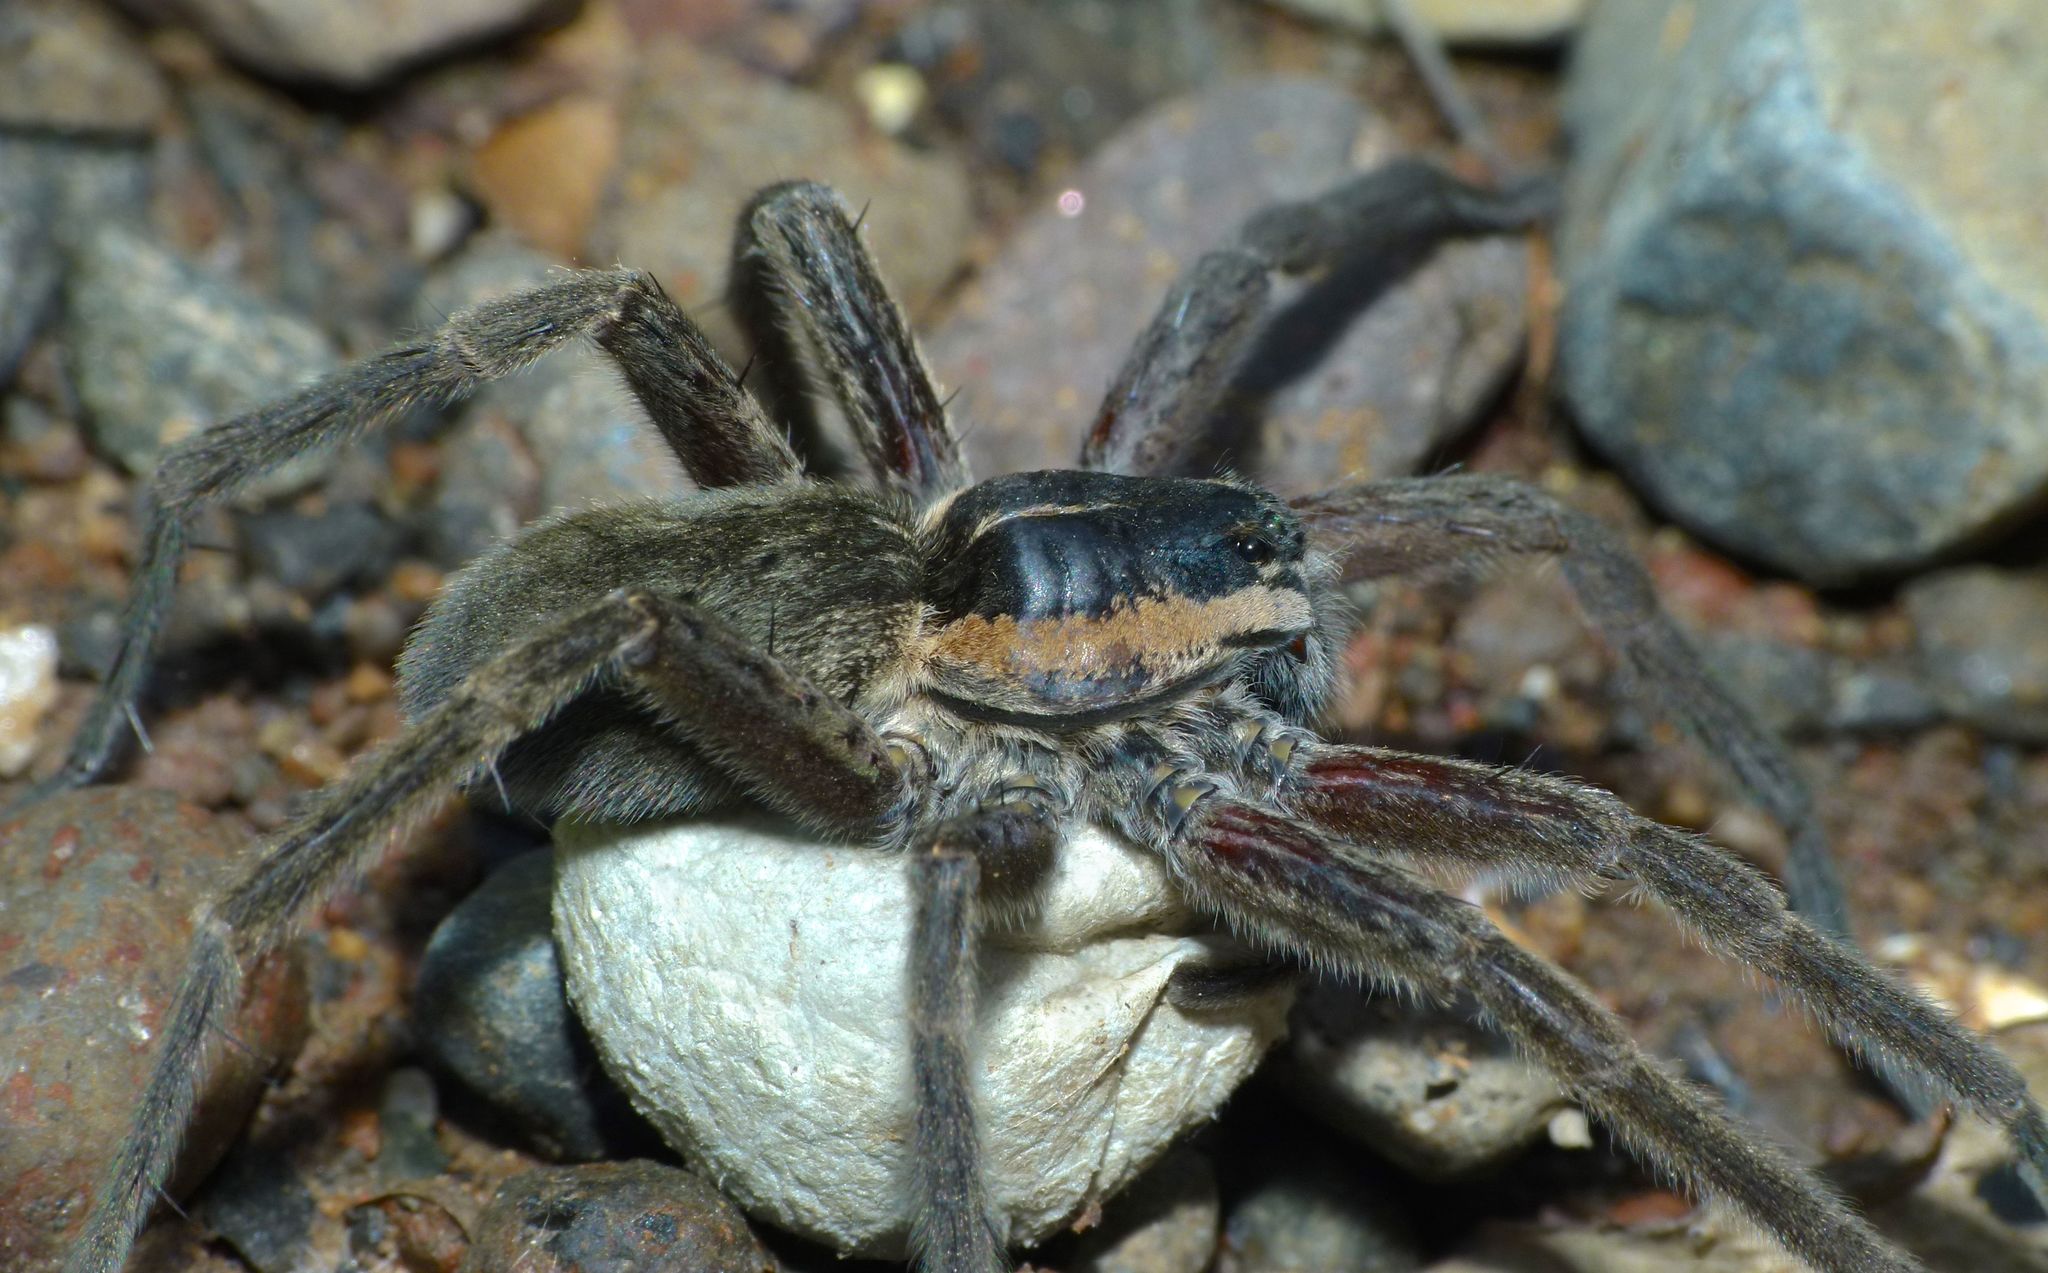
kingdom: Animalia
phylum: Arthropoda
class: Arachnida
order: Araneae
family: Pisauridae
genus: Dolomedes
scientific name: Dolomedes aquaticus
